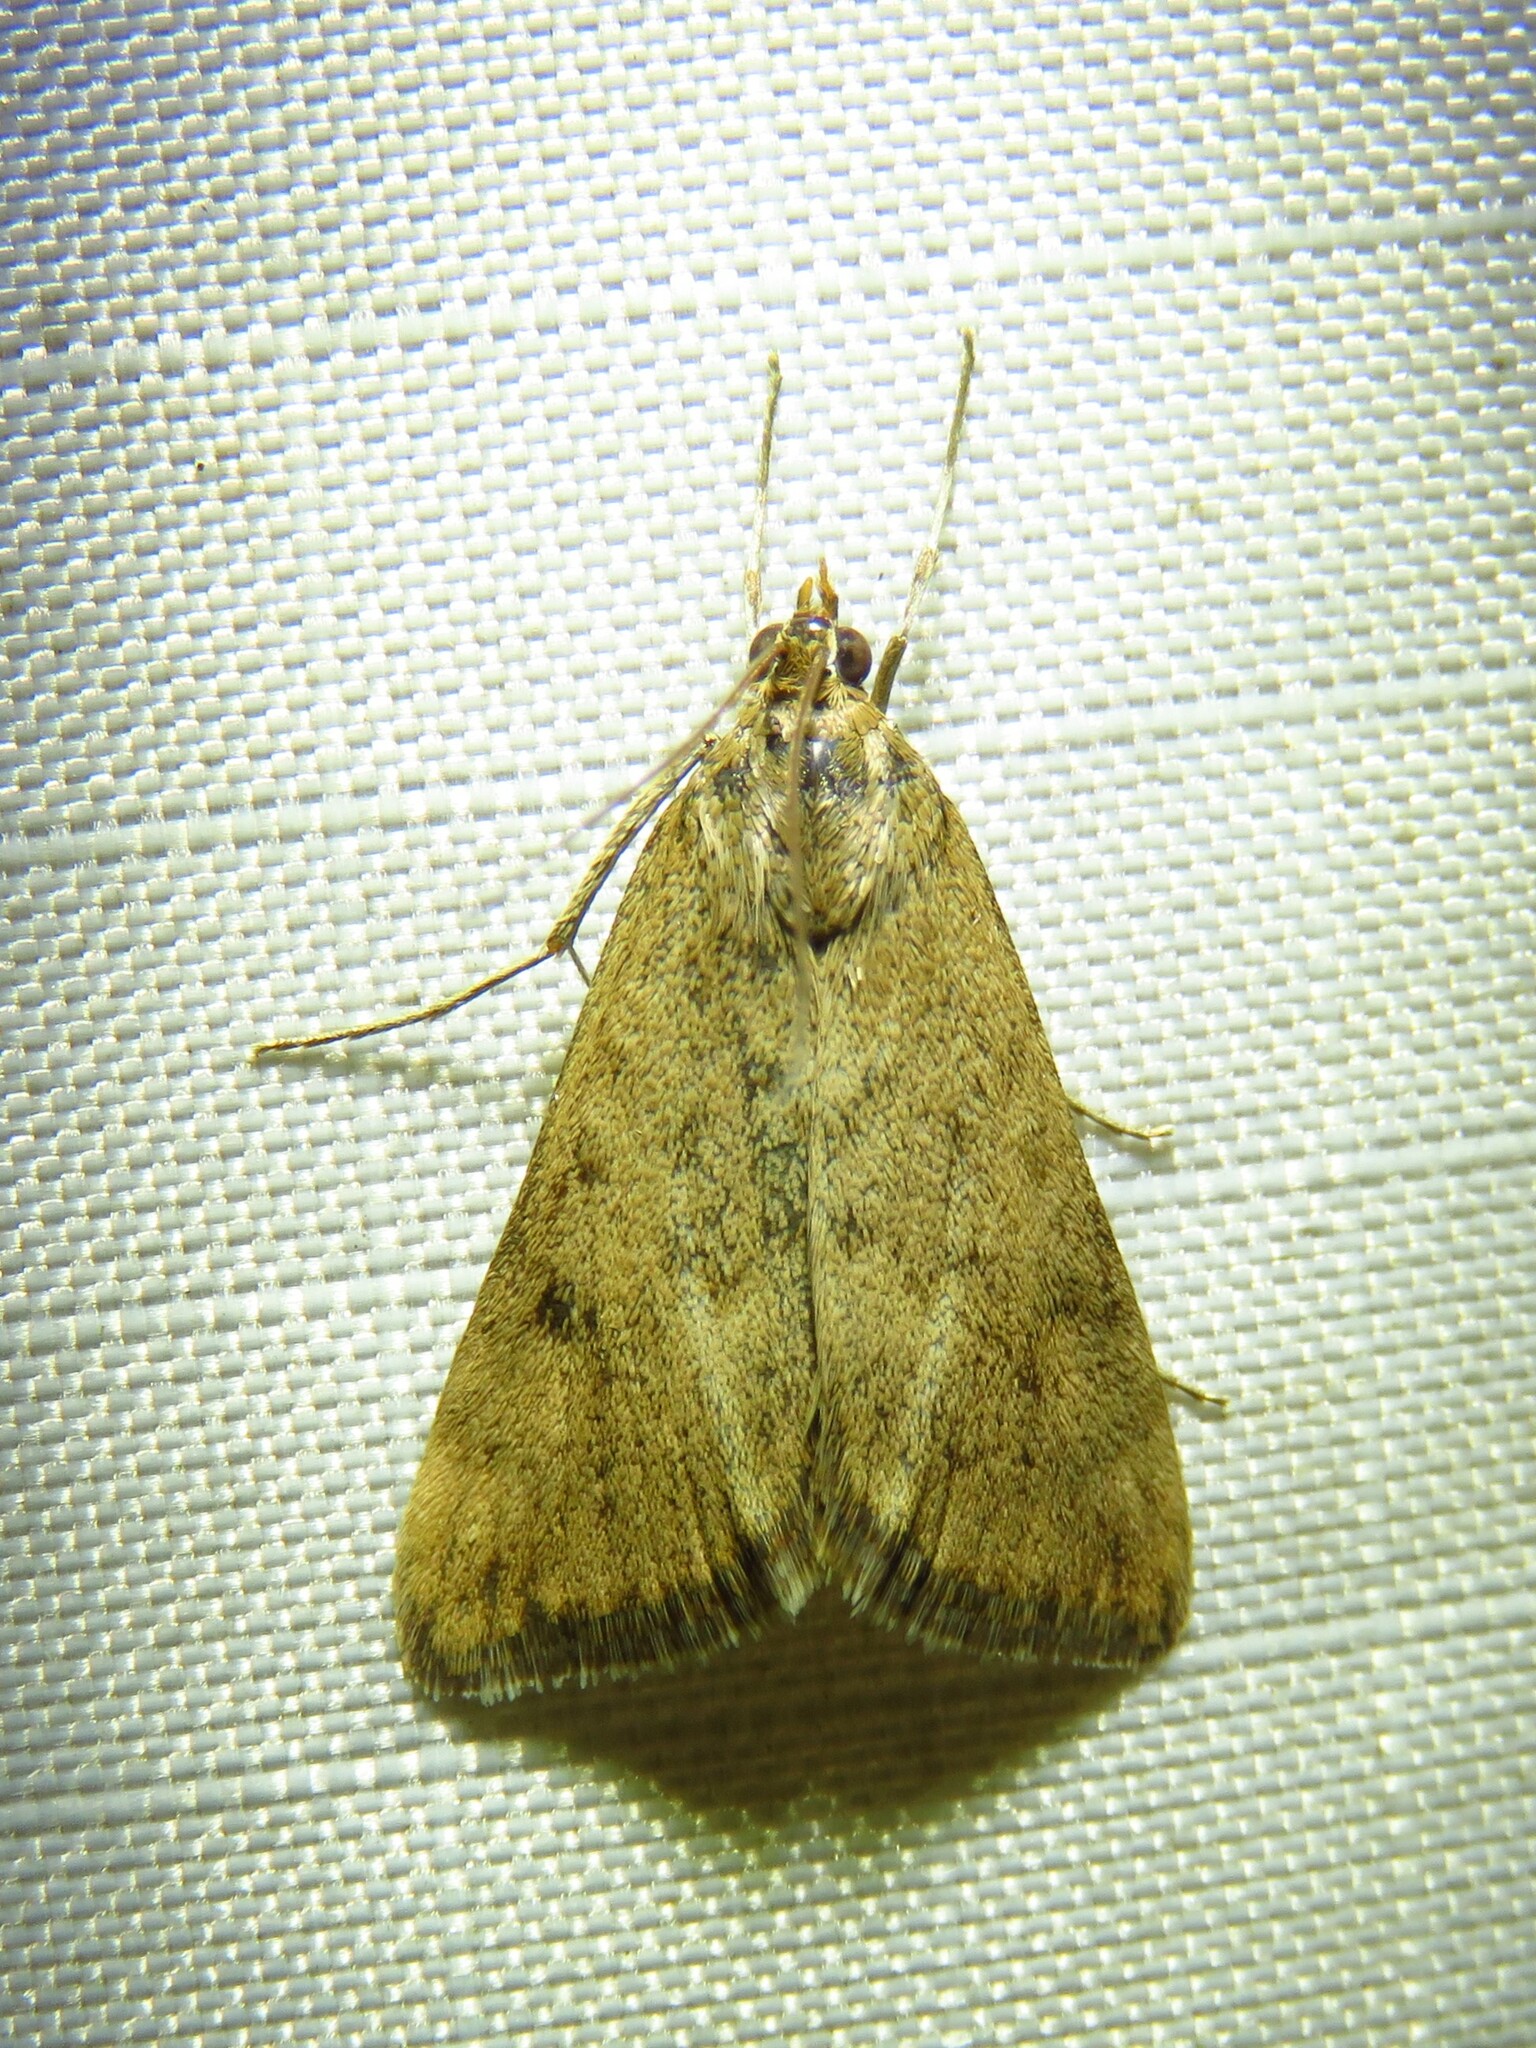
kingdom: Animalia
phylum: Arthropoda
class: Insecta
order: Lepidoptera
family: Crambidae
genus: Achyra
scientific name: Achyra rantalis
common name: Garden webworm
